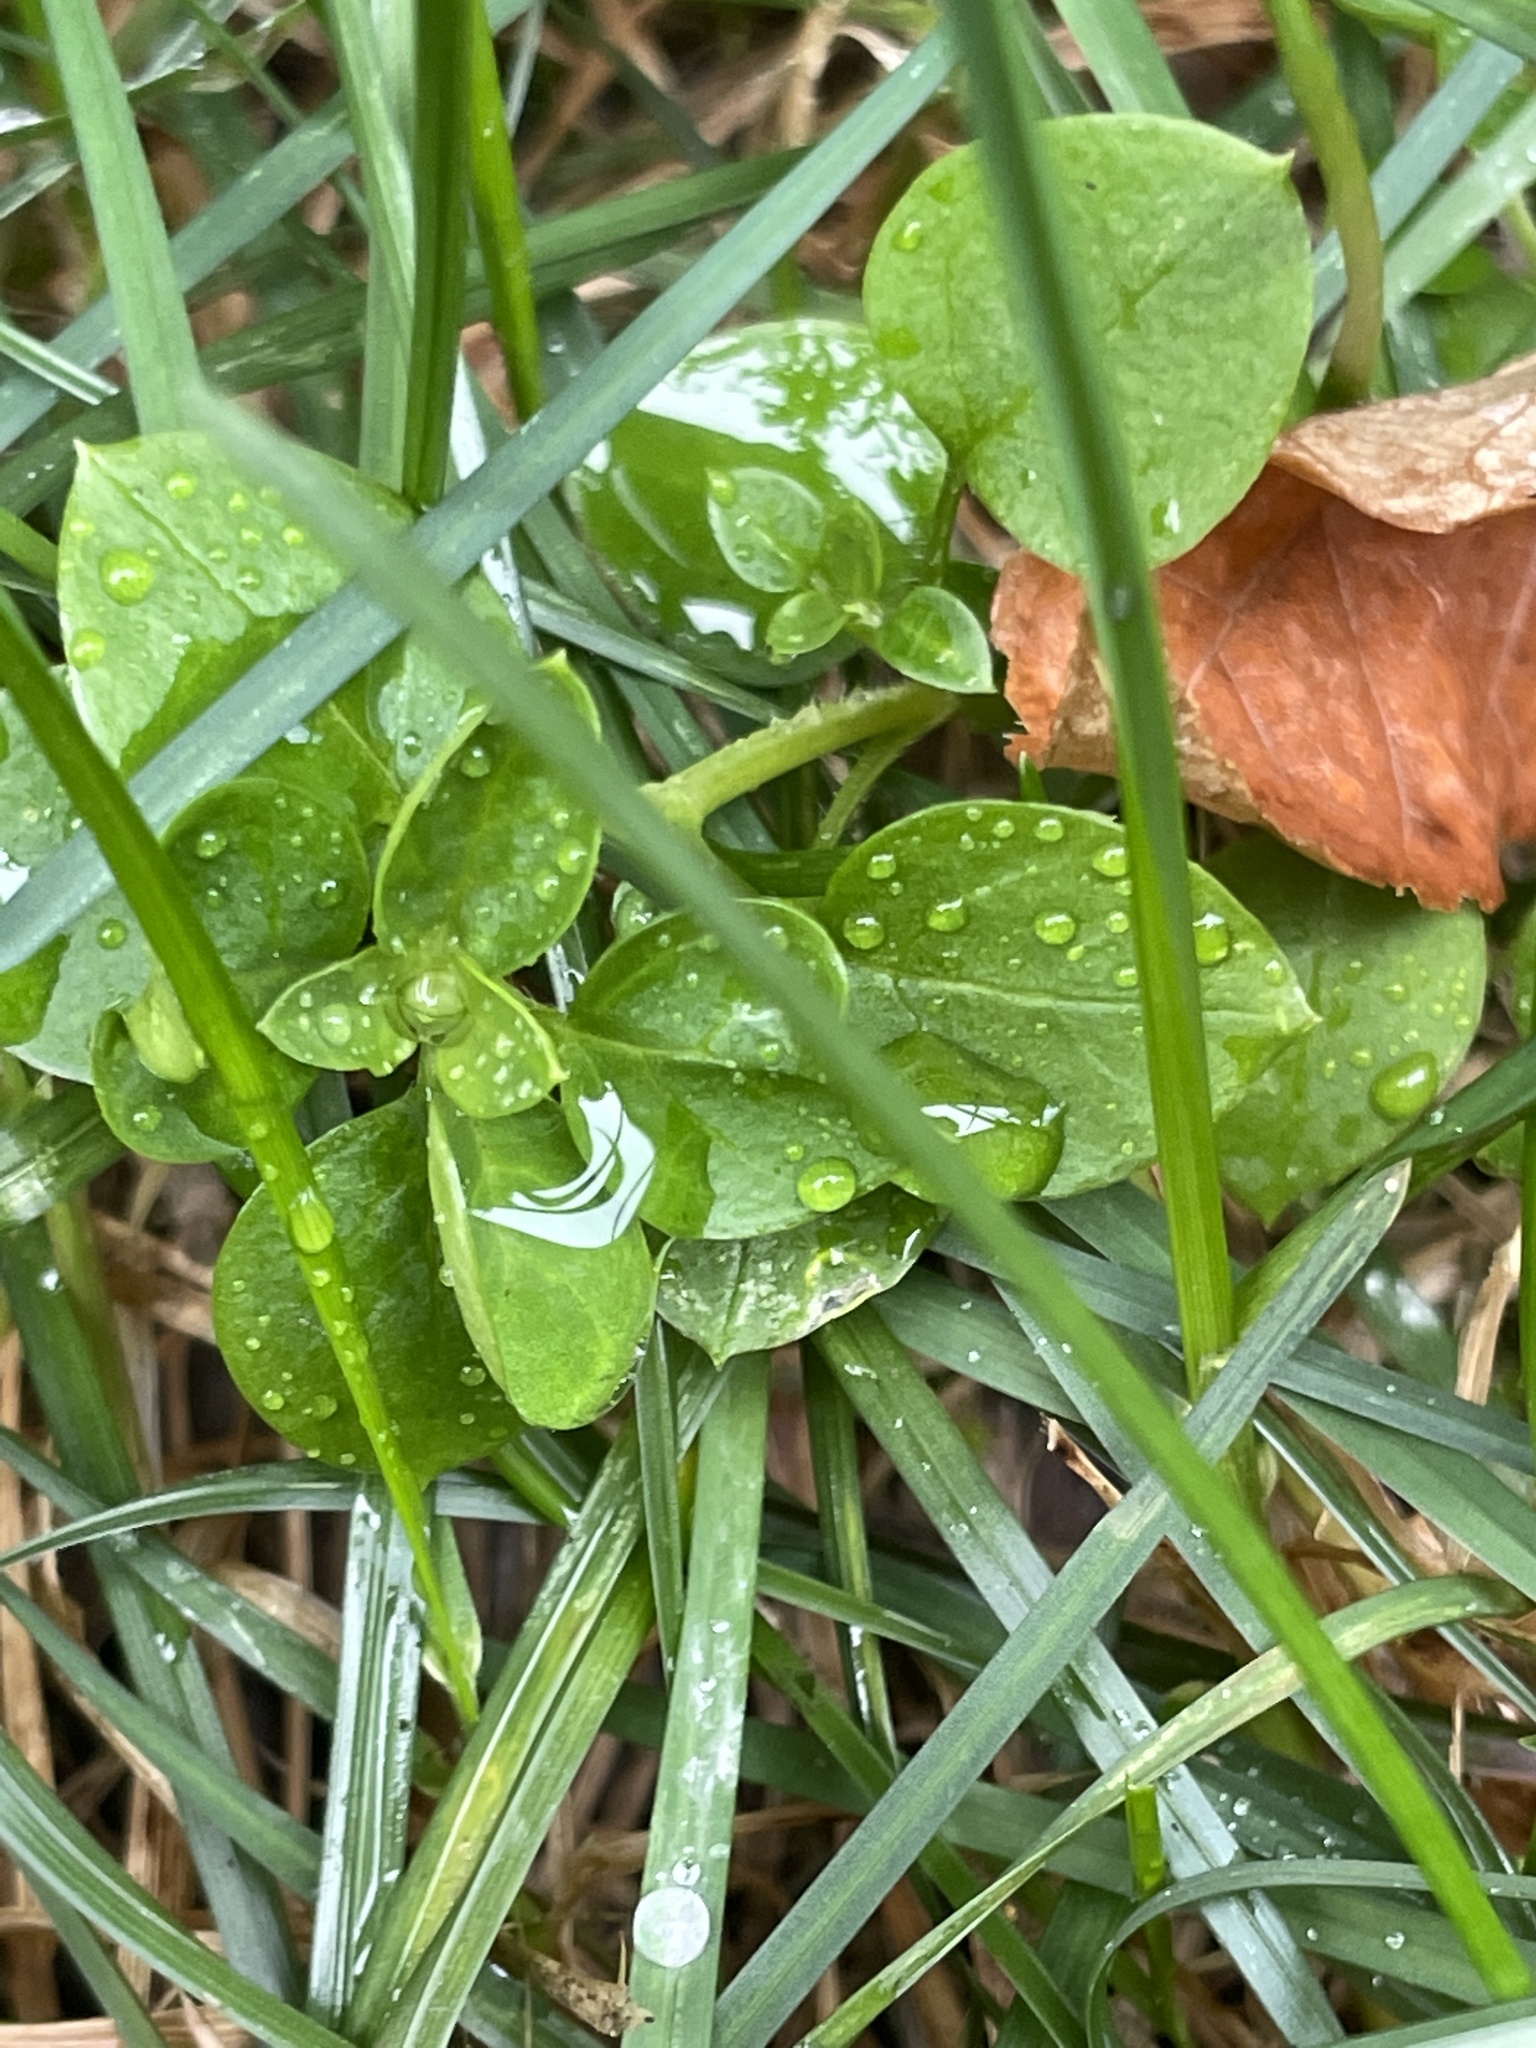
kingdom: Plantae
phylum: Tracheophyta
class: Magnoliopsida
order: Caryophyllales
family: Caryophyllaceae
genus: Stellaria
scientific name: Stellaria media
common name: Common chickweed
